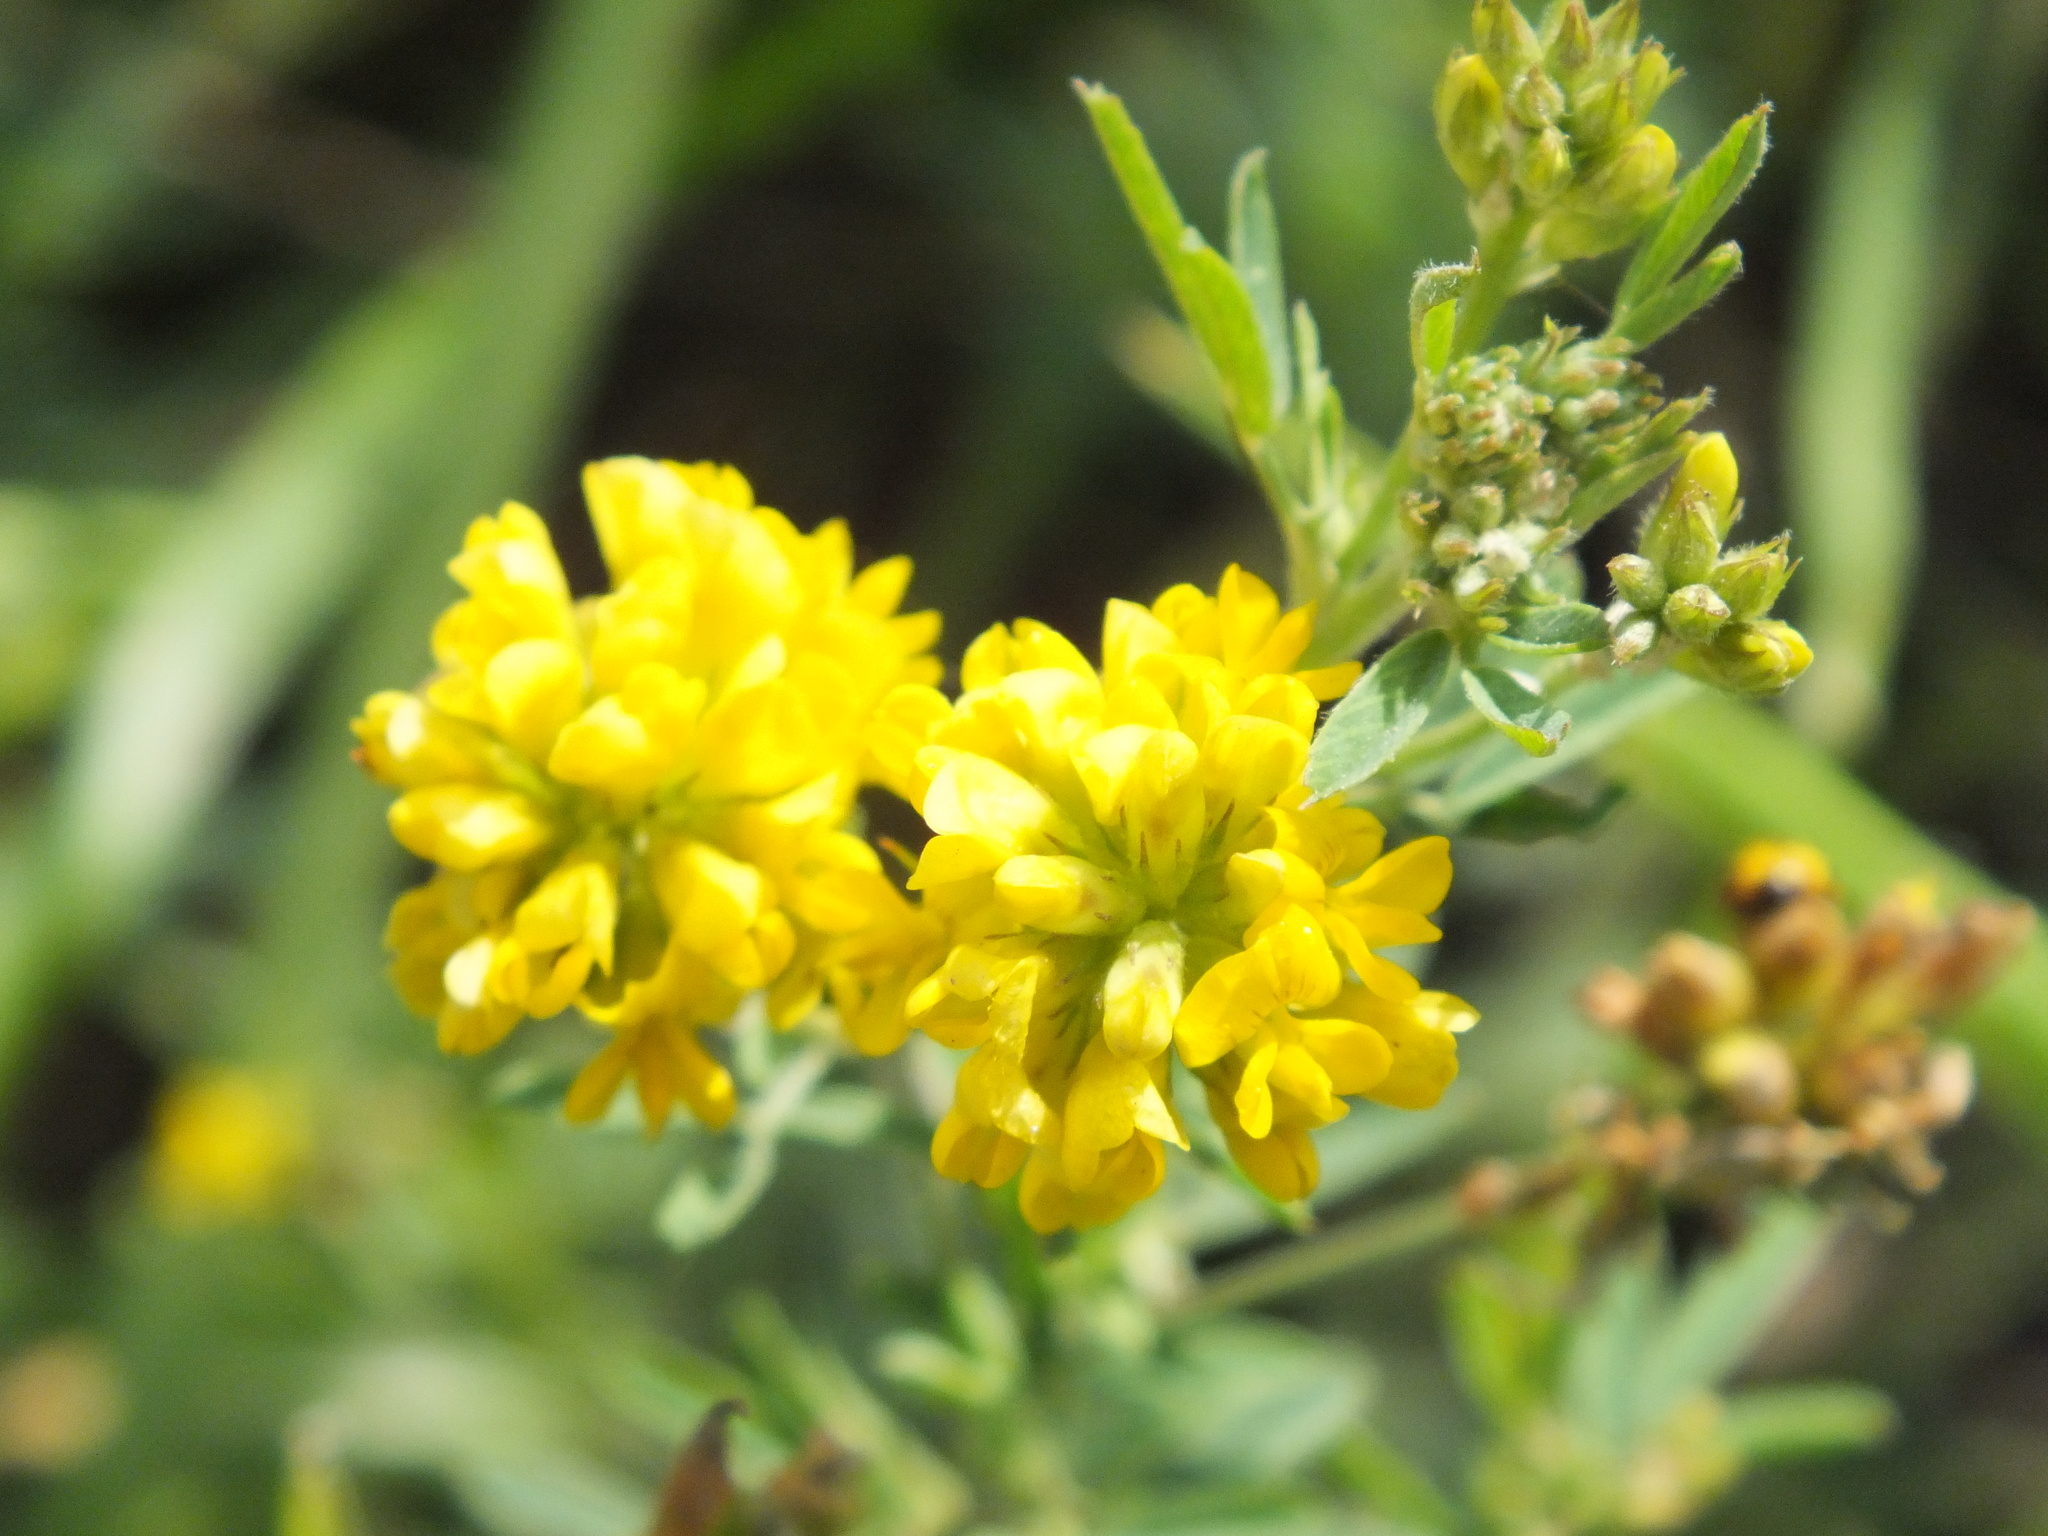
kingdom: Plantae
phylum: Tracheophyta
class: Magnoliopsida
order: Fabales
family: Fabaceae
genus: Medicago
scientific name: Medicago falcata
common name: Sickle medick
